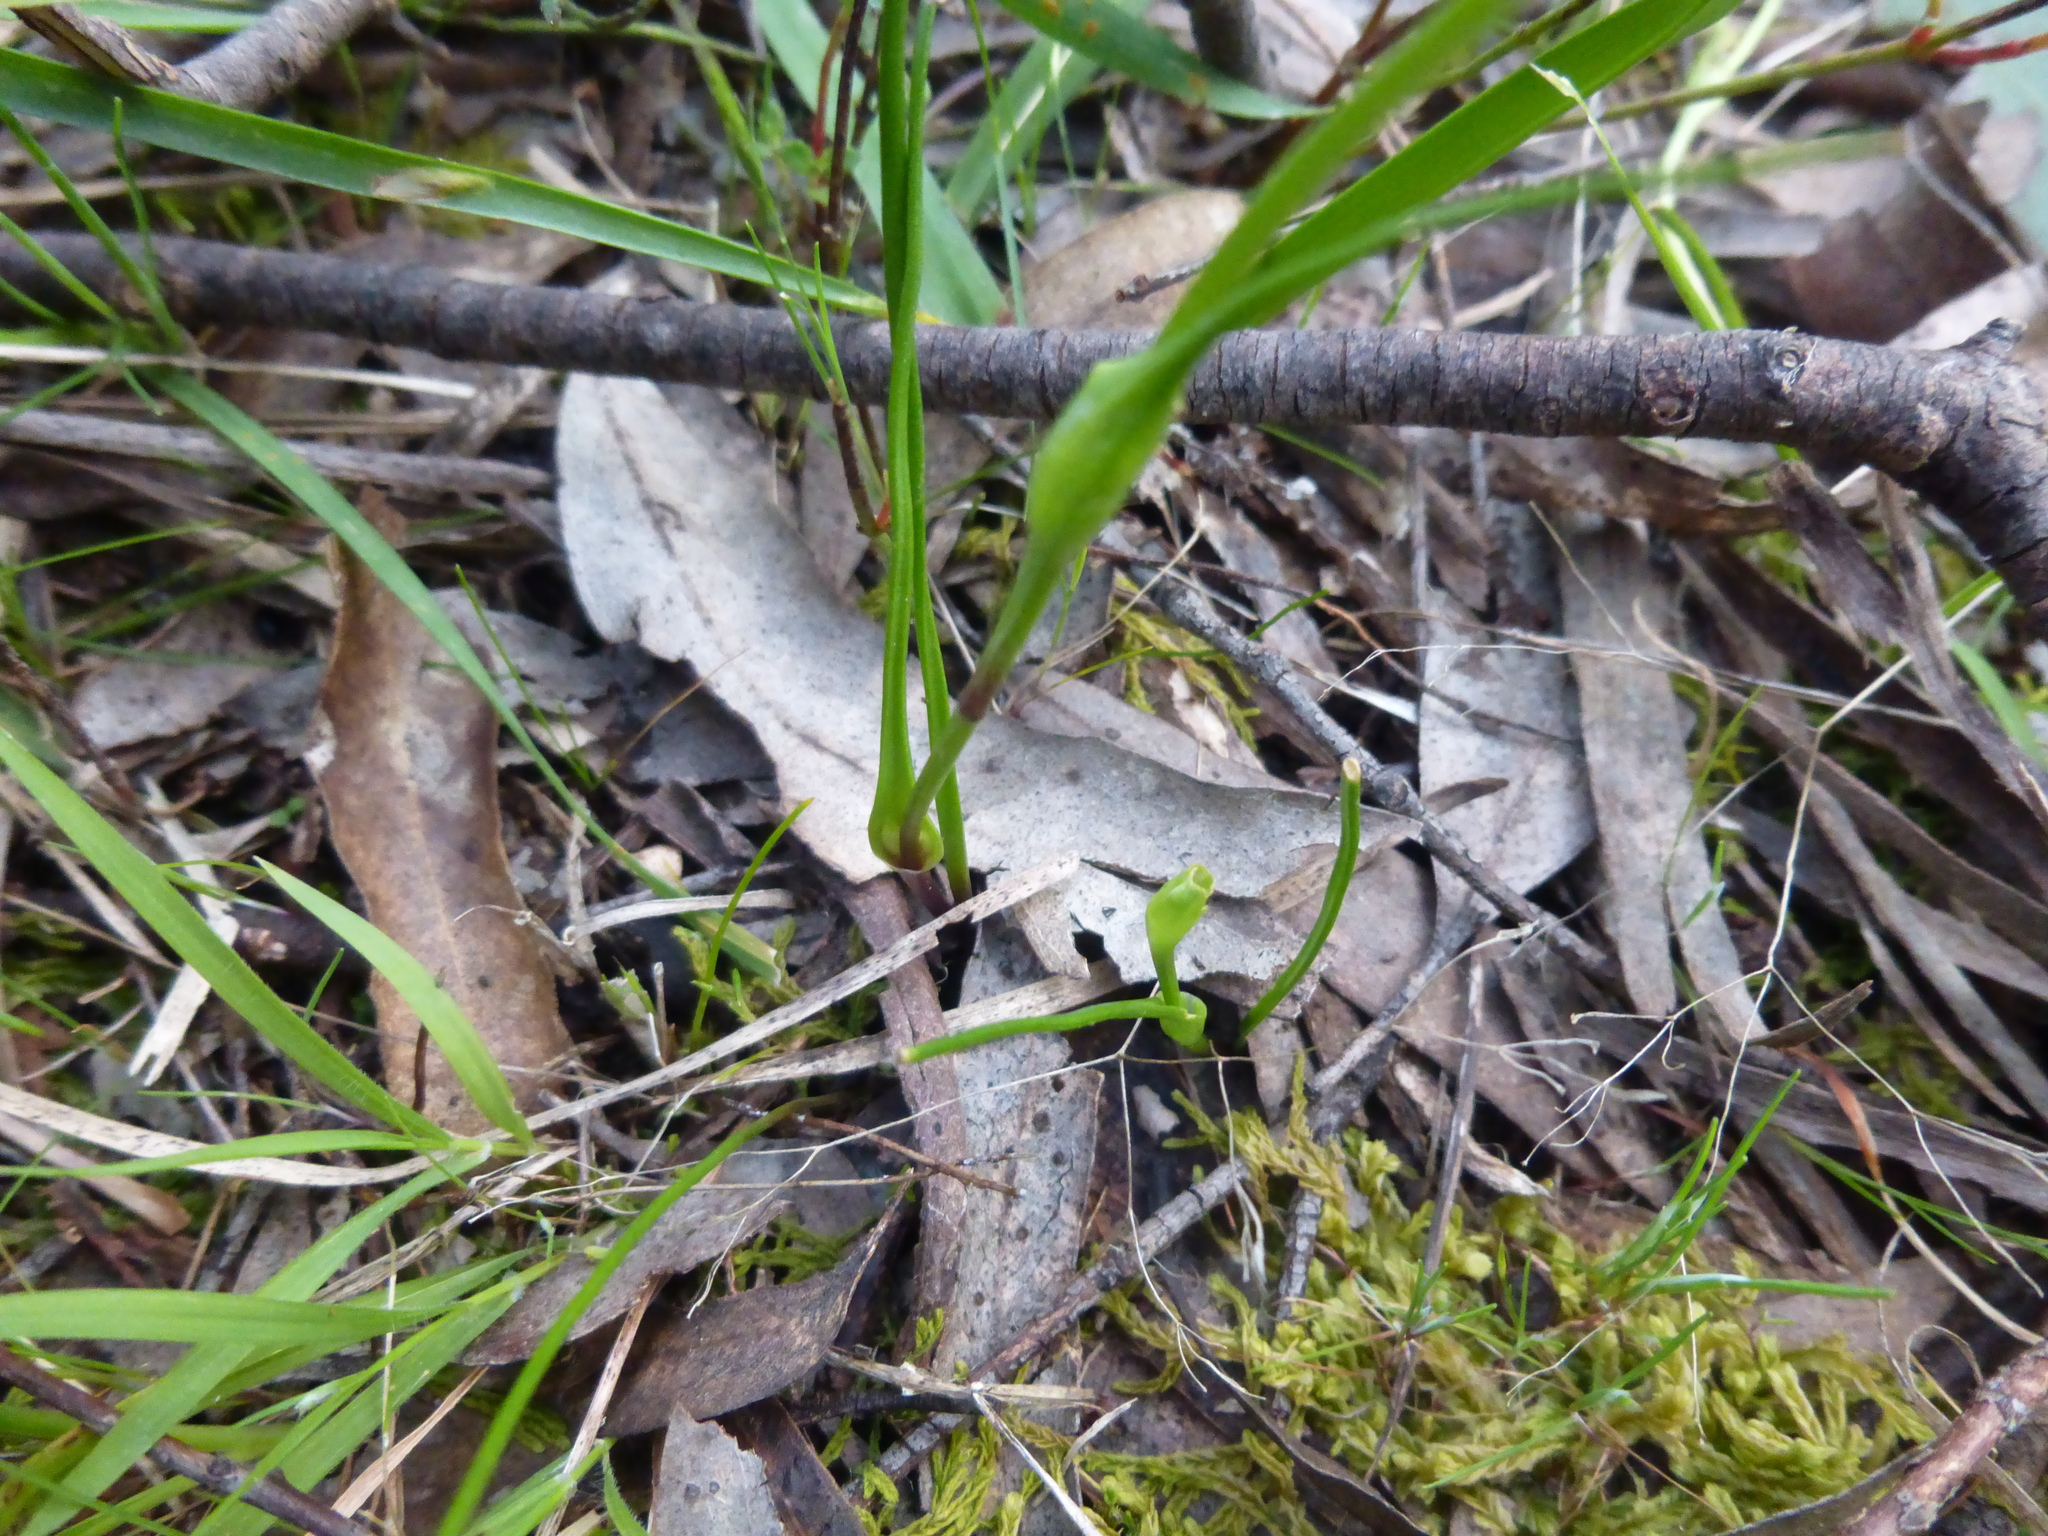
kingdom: Plantae
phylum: Tracheophyta
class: Liliopsida
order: Liliales
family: Colchicaceae
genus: Wurmbea
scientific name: Wurmbea dioica
